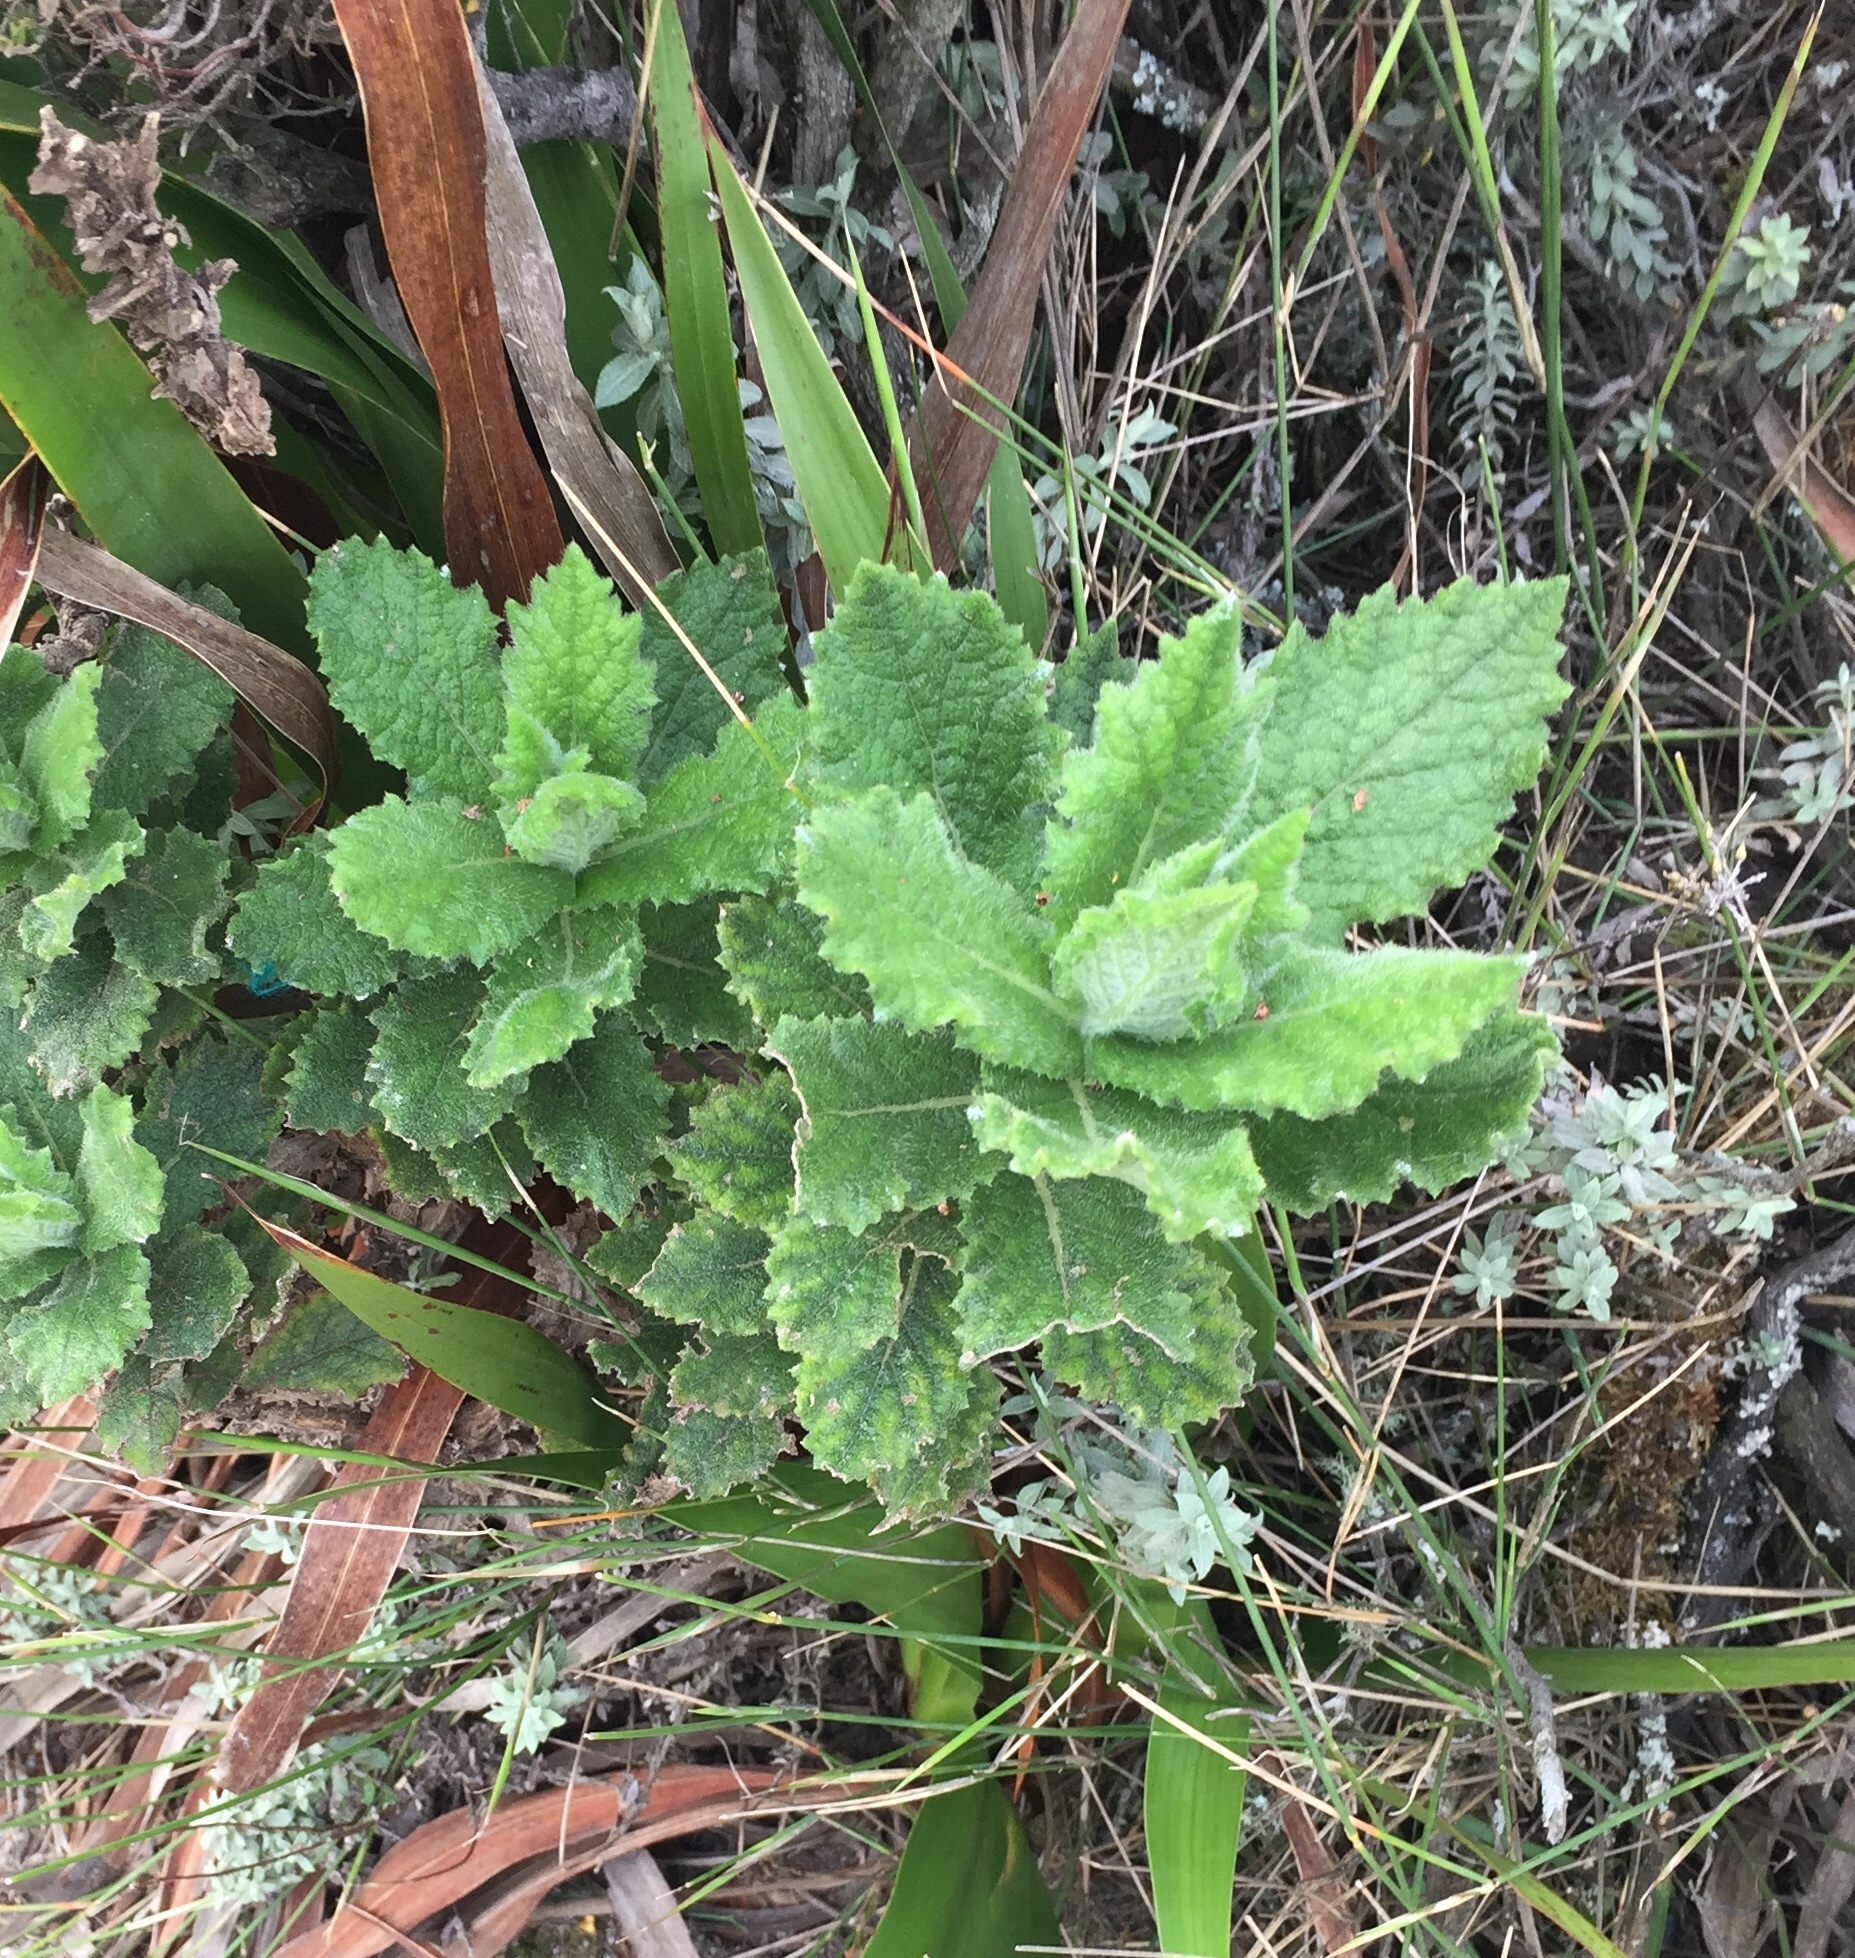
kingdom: Plantae
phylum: Tracheophyta
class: Magnoliopsida
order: Asterales
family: Asteraceae
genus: Senecio
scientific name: Senecio rigidus
